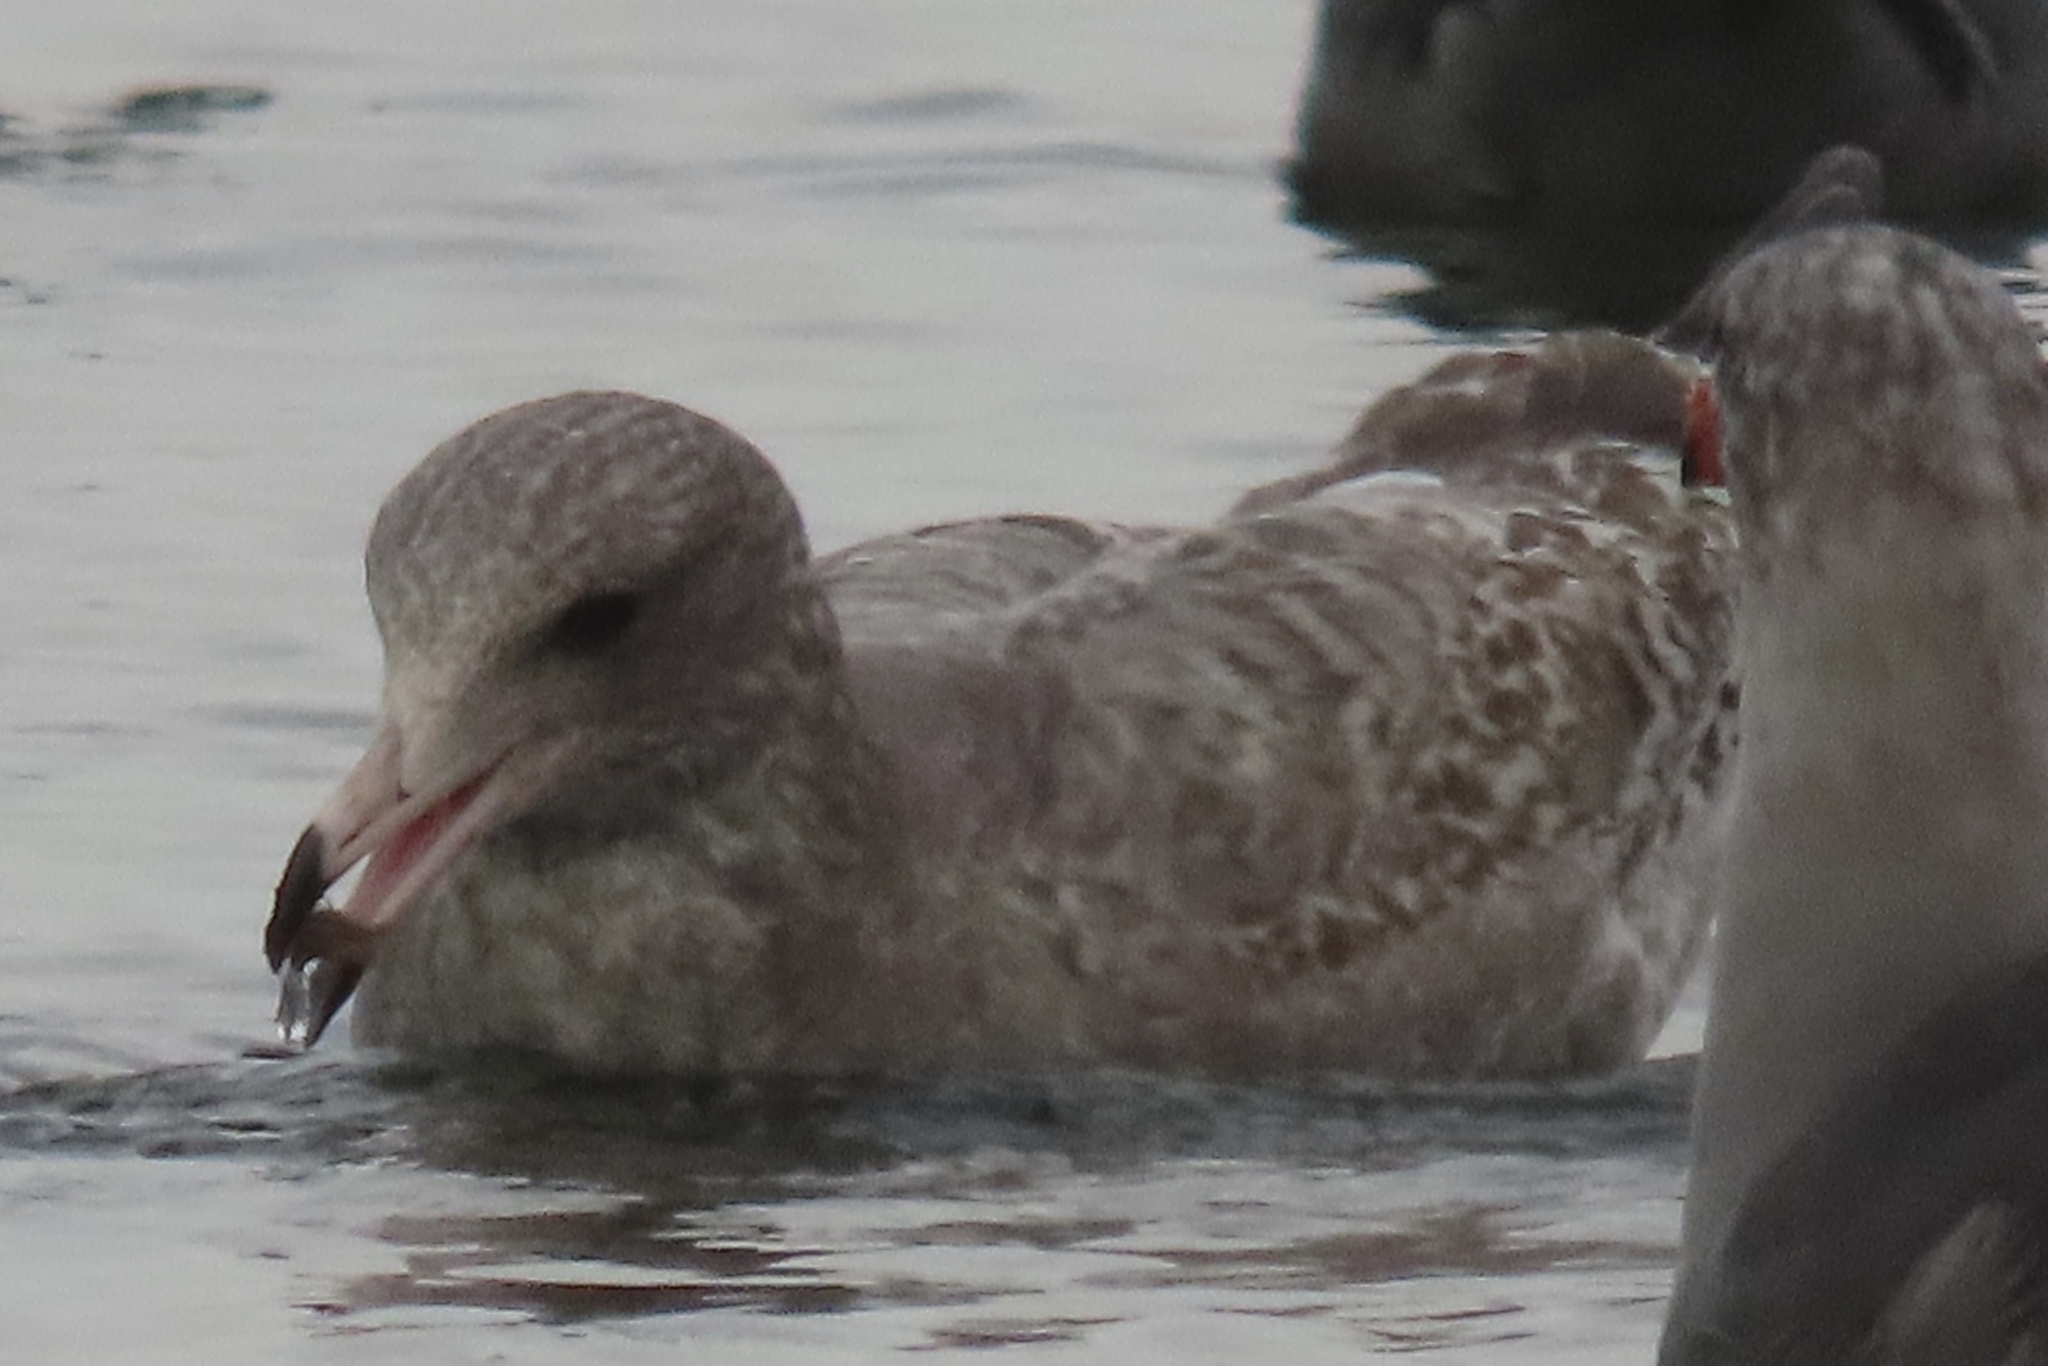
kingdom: Animalia
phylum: Chordata
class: Aves
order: Charadriiformes
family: Laridae
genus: Larus
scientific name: Larus californicus
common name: California gull
